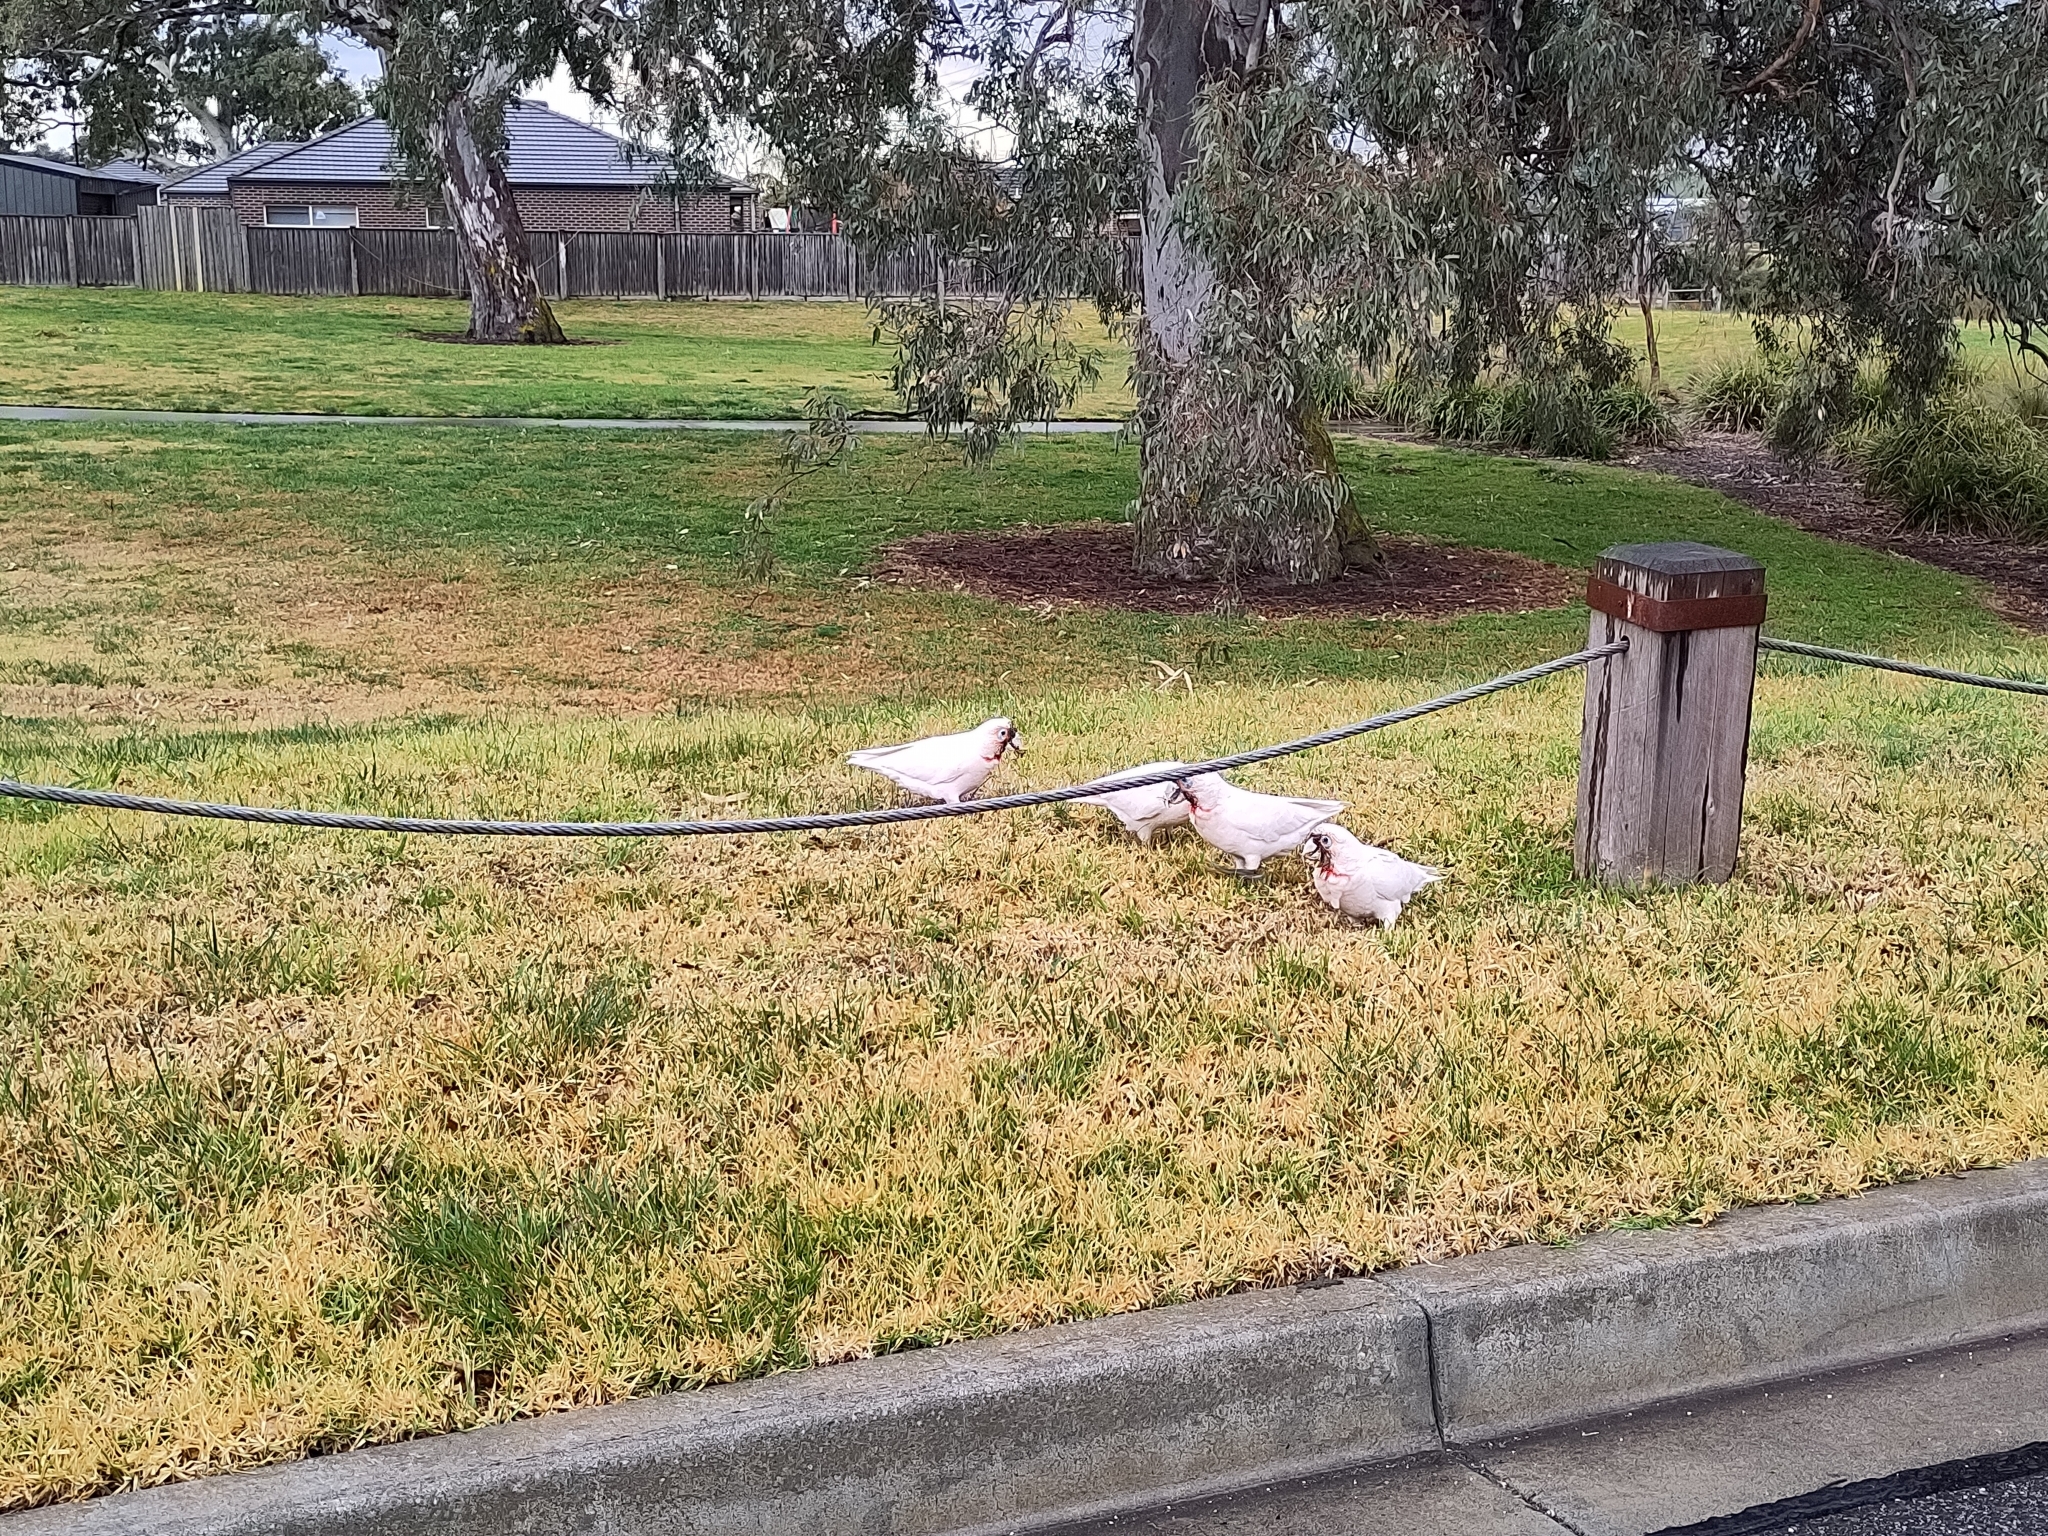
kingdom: Animalia
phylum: Chordata
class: Aves
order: Psittaciformes
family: Psittacidae
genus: Cacatua
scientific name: Cacatua tenuirostris
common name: Long-billed corella
